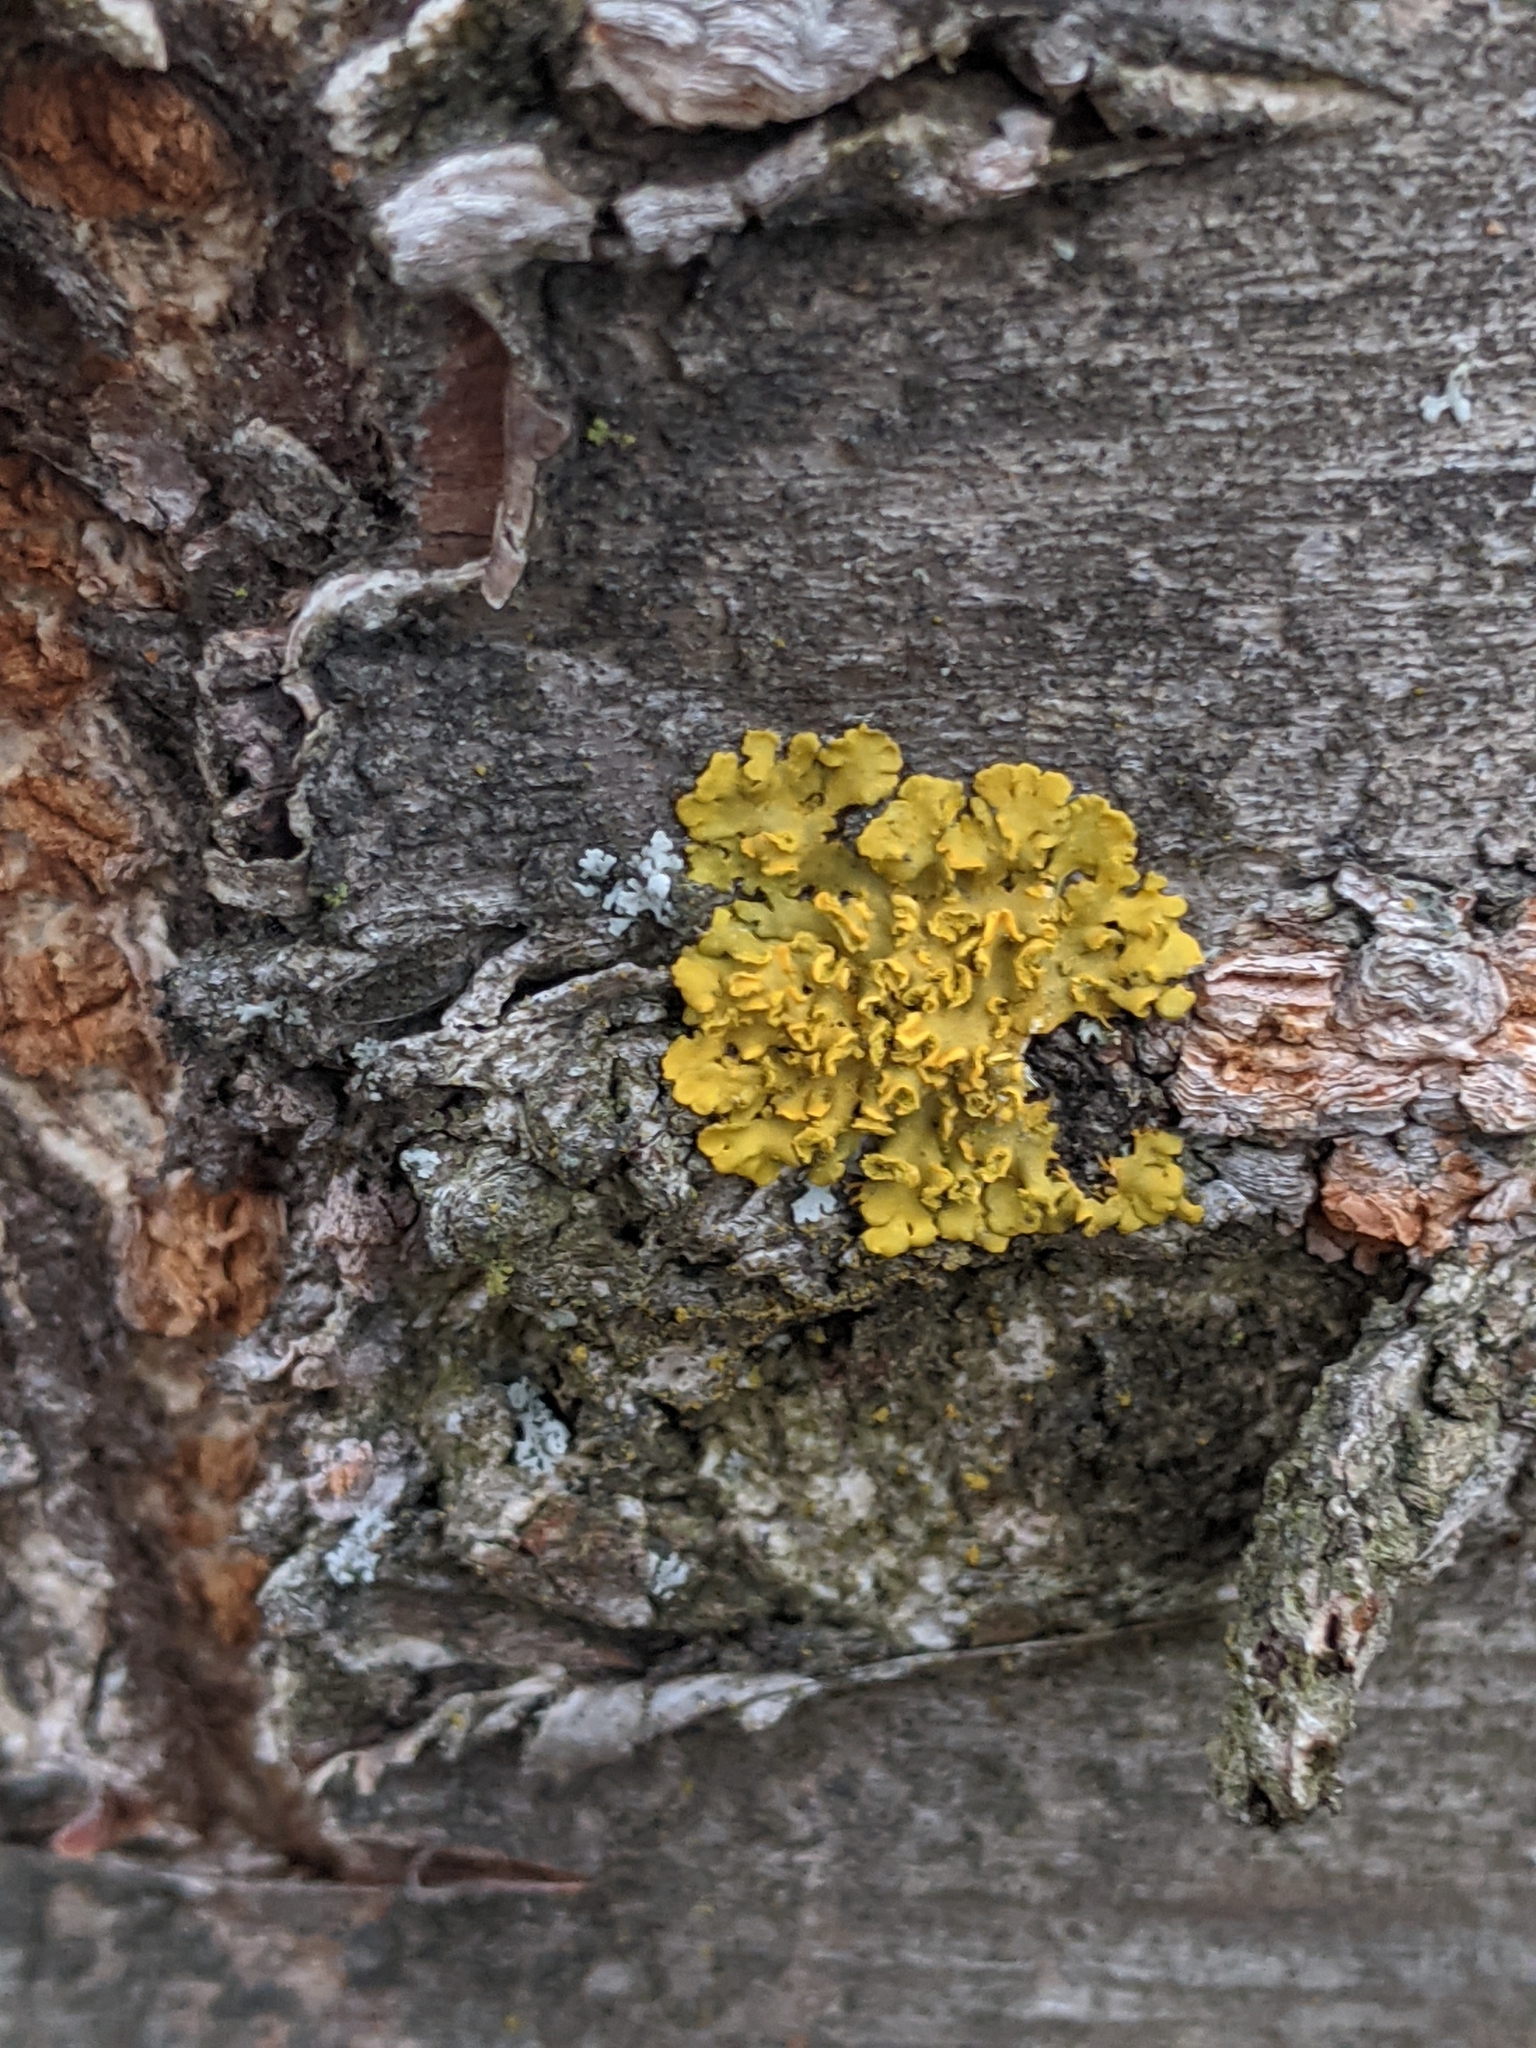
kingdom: Fungi
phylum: Ascomycota
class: Lecanoromycetes
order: Teloschistales
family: Teloschistaceae
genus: Oxneria
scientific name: Oxneria fallax
